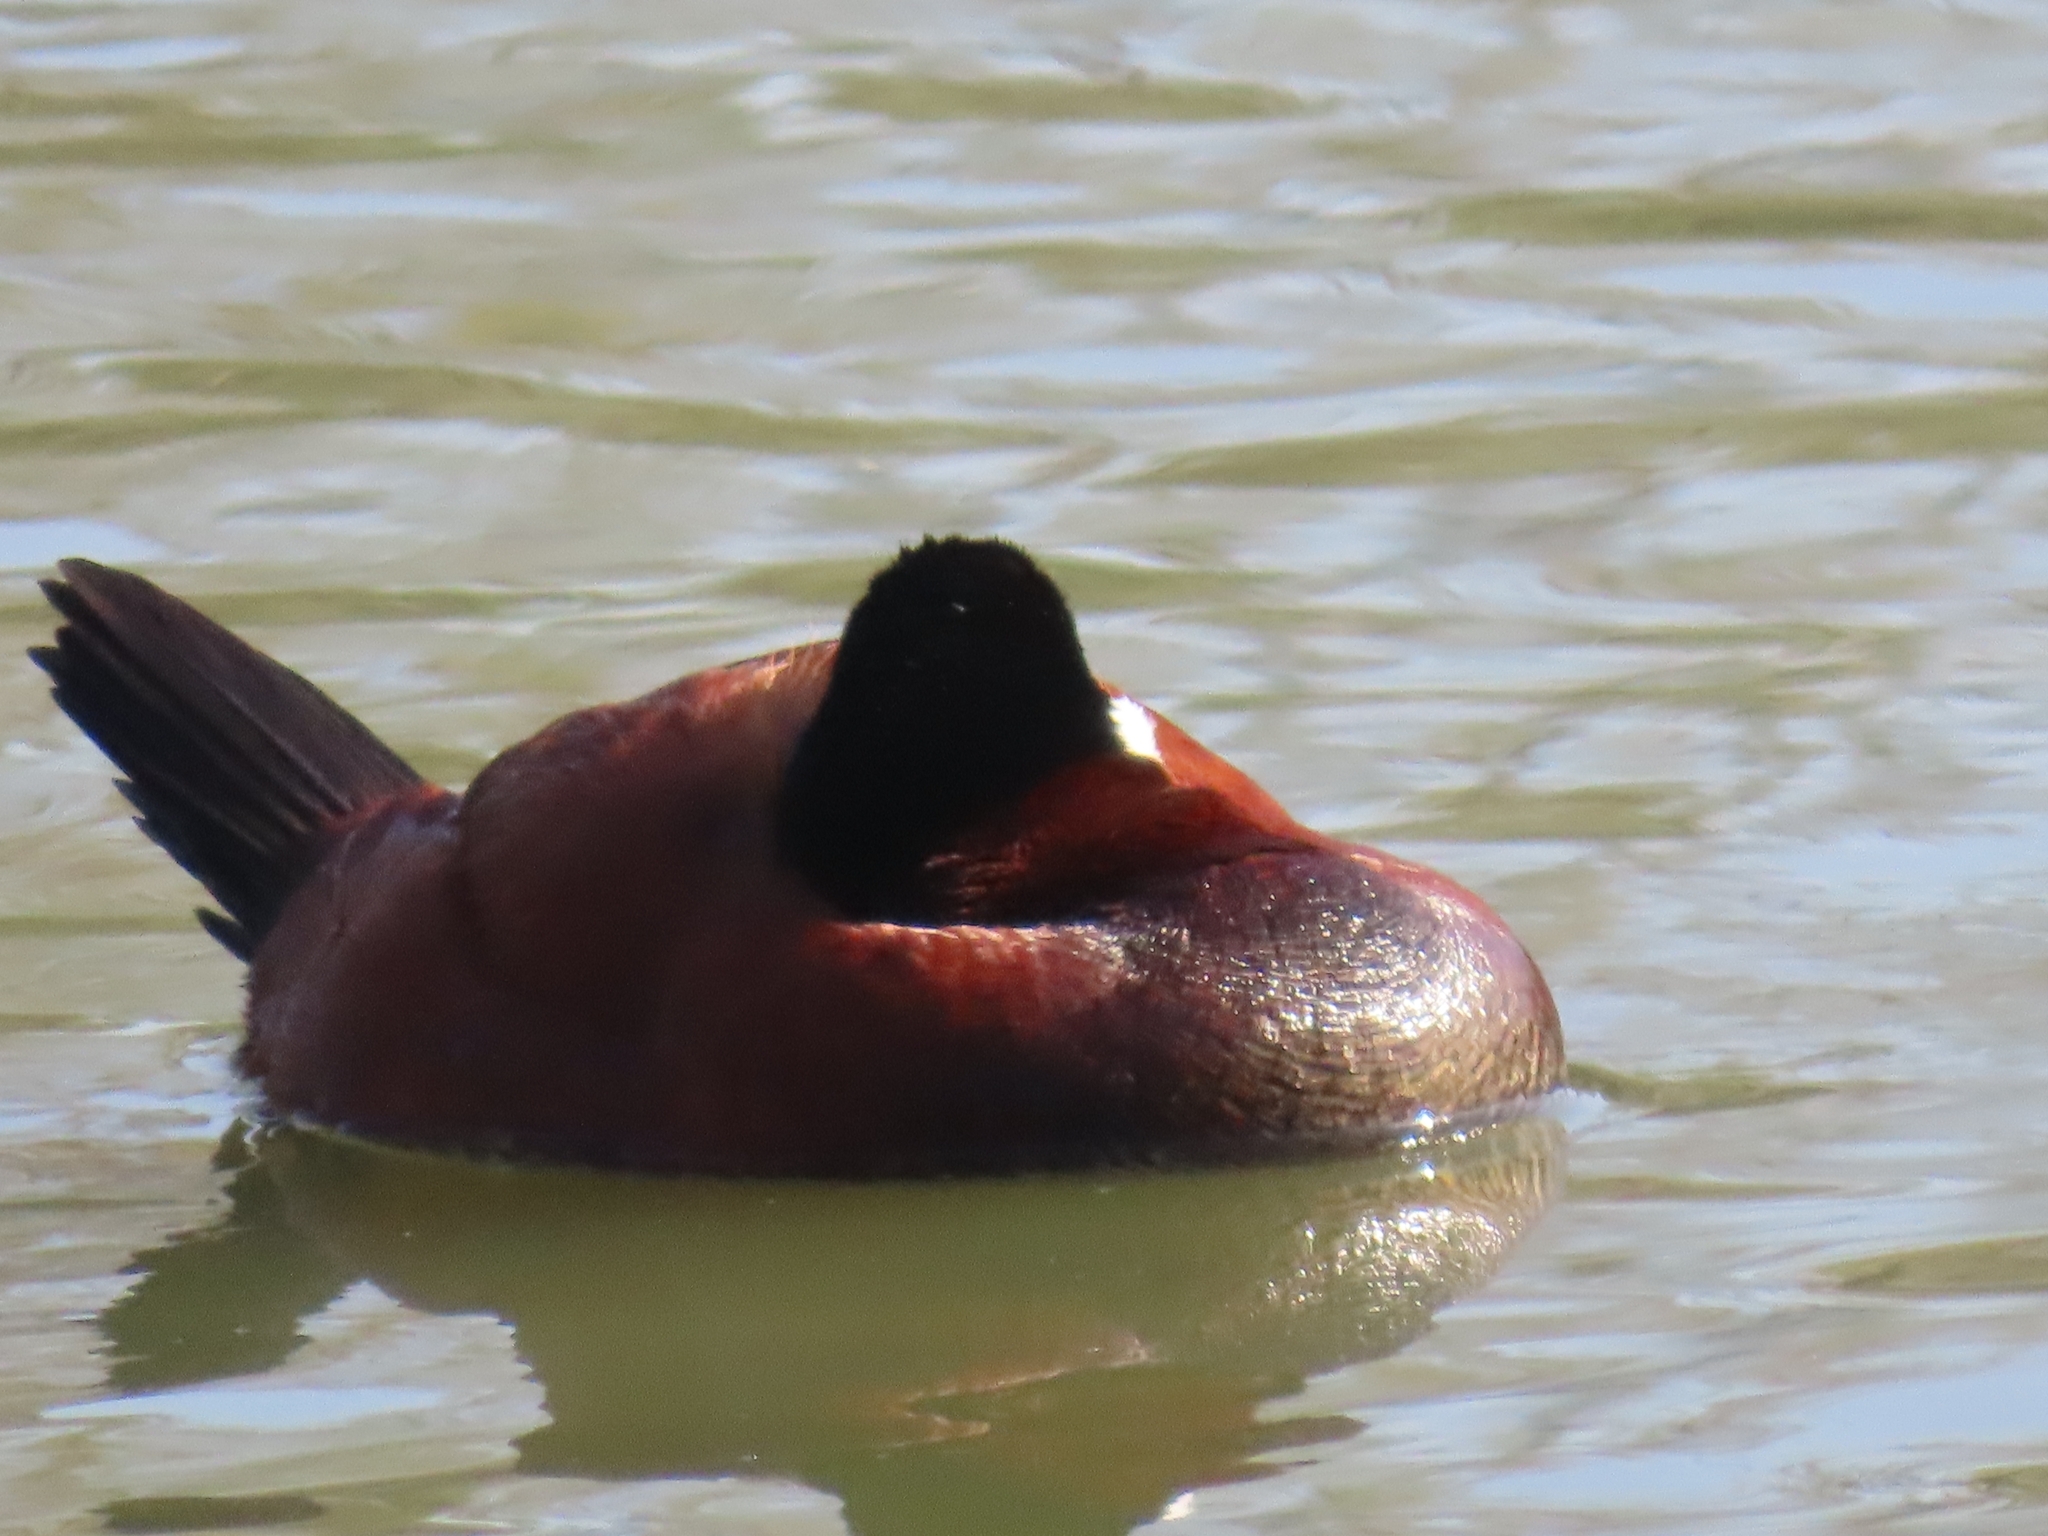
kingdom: Animalia
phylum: Chordata
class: Aves
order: Anseriformes
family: Anatidae
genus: Oxyura
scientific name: Oxyura jamaicensis
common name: Ruddy duck
